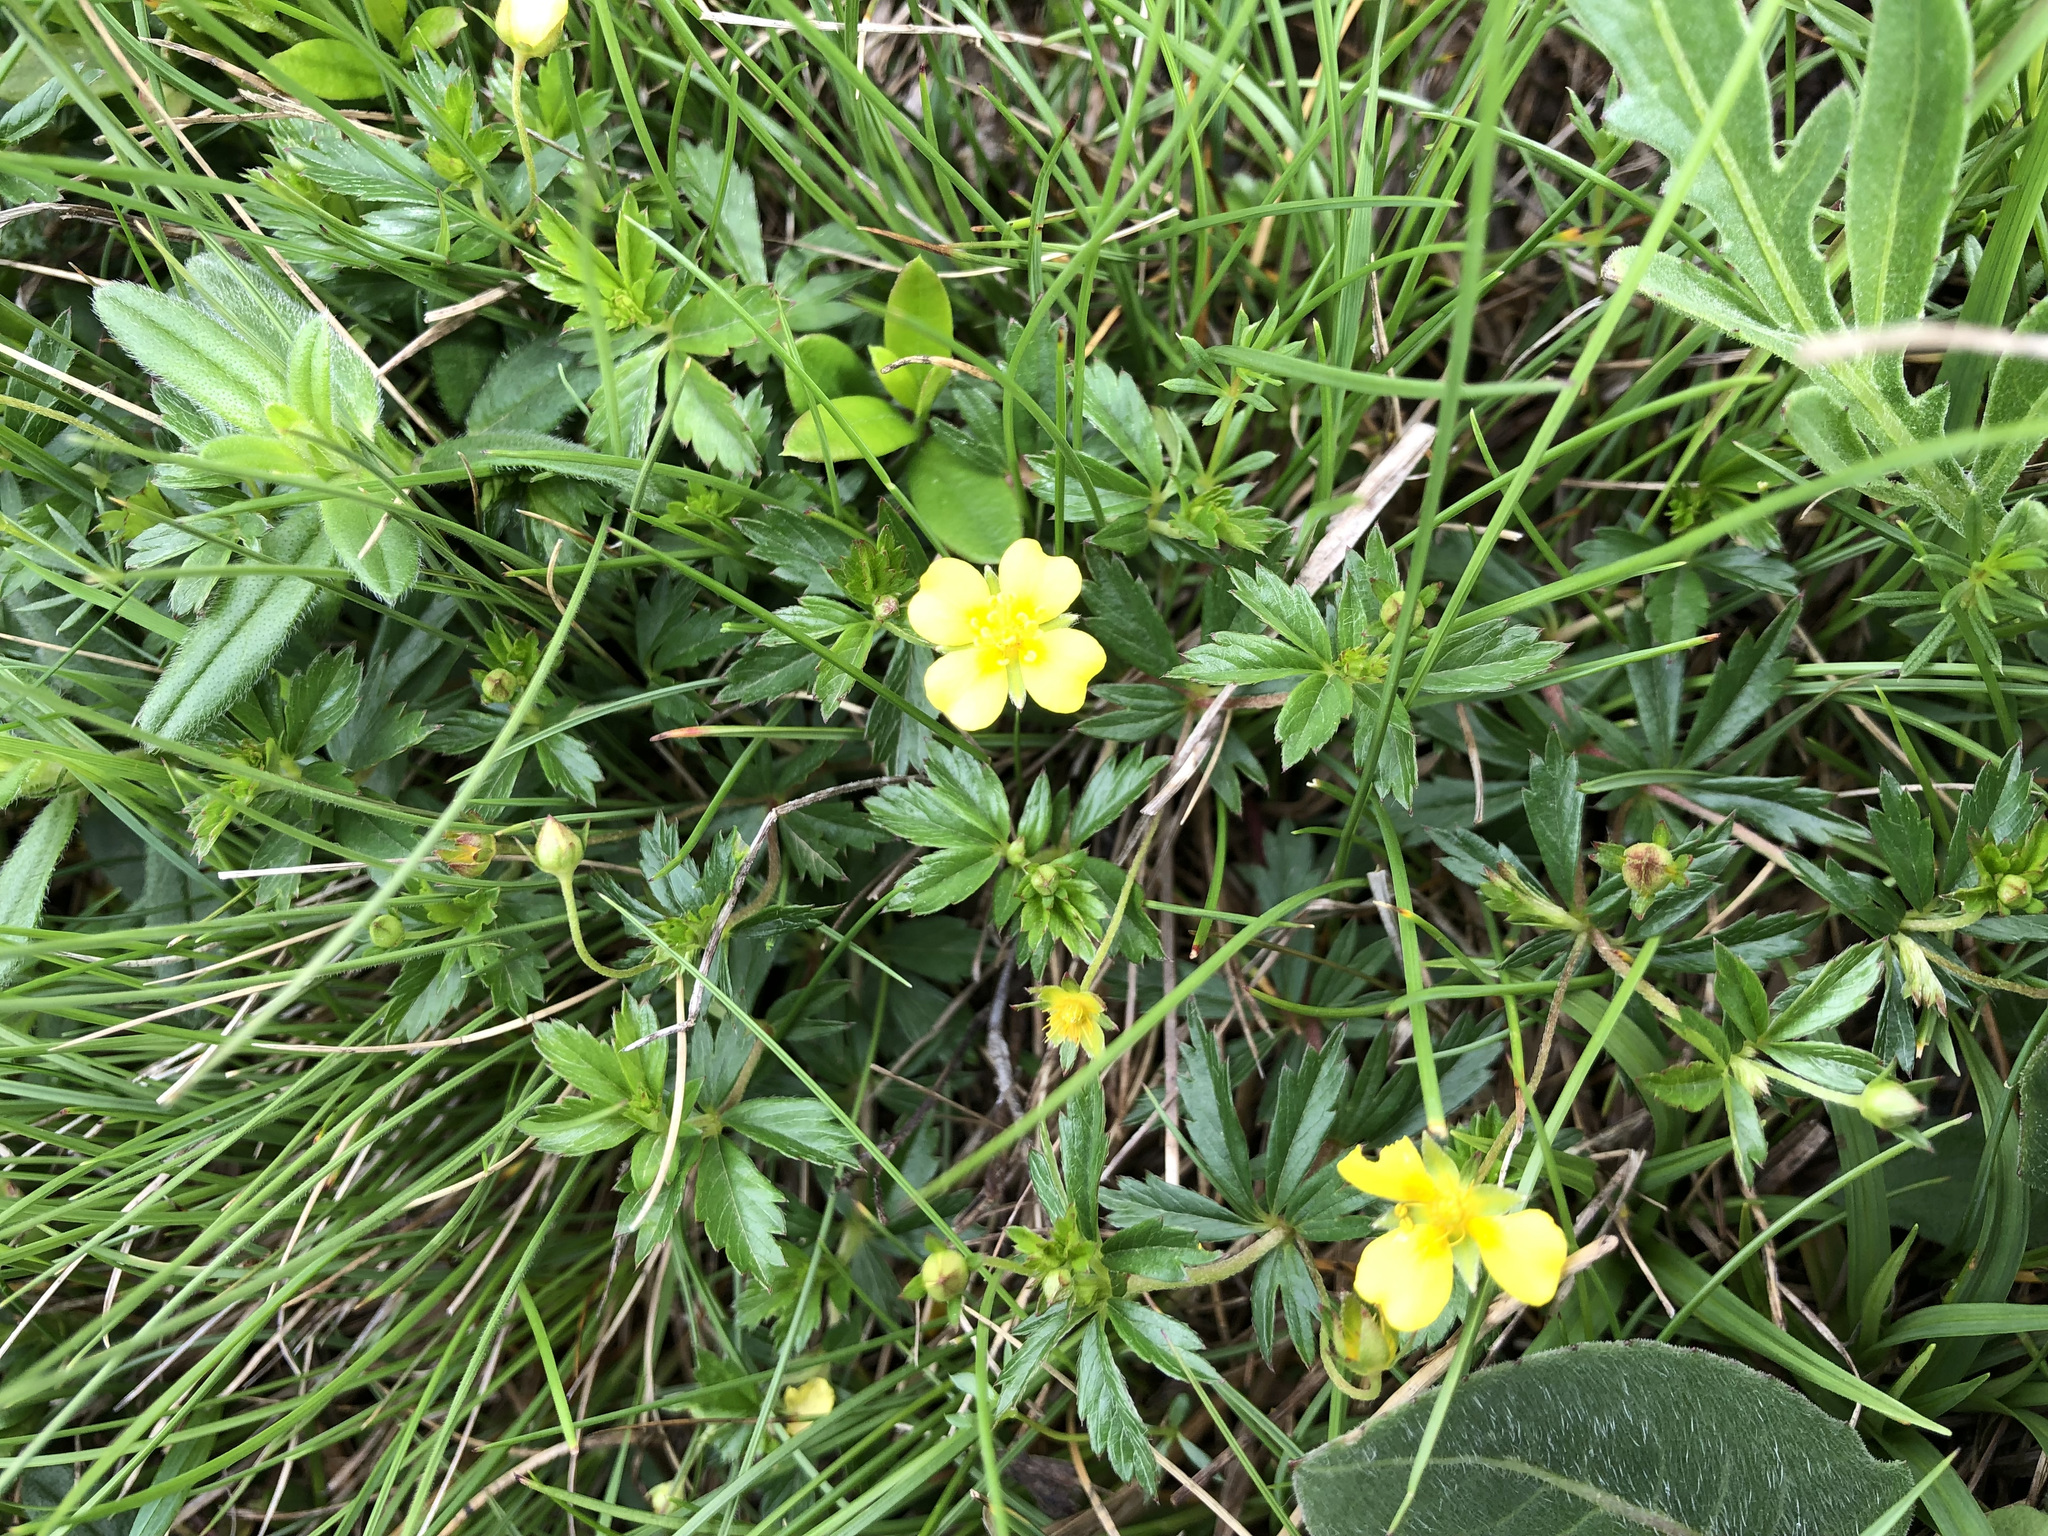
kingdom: Plantae
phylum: Tracheophyta
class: Magnoliopsida
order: Rosales
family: Rosaceae
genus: Potentilla
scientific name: Potentilla erecta
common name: Tormentil
